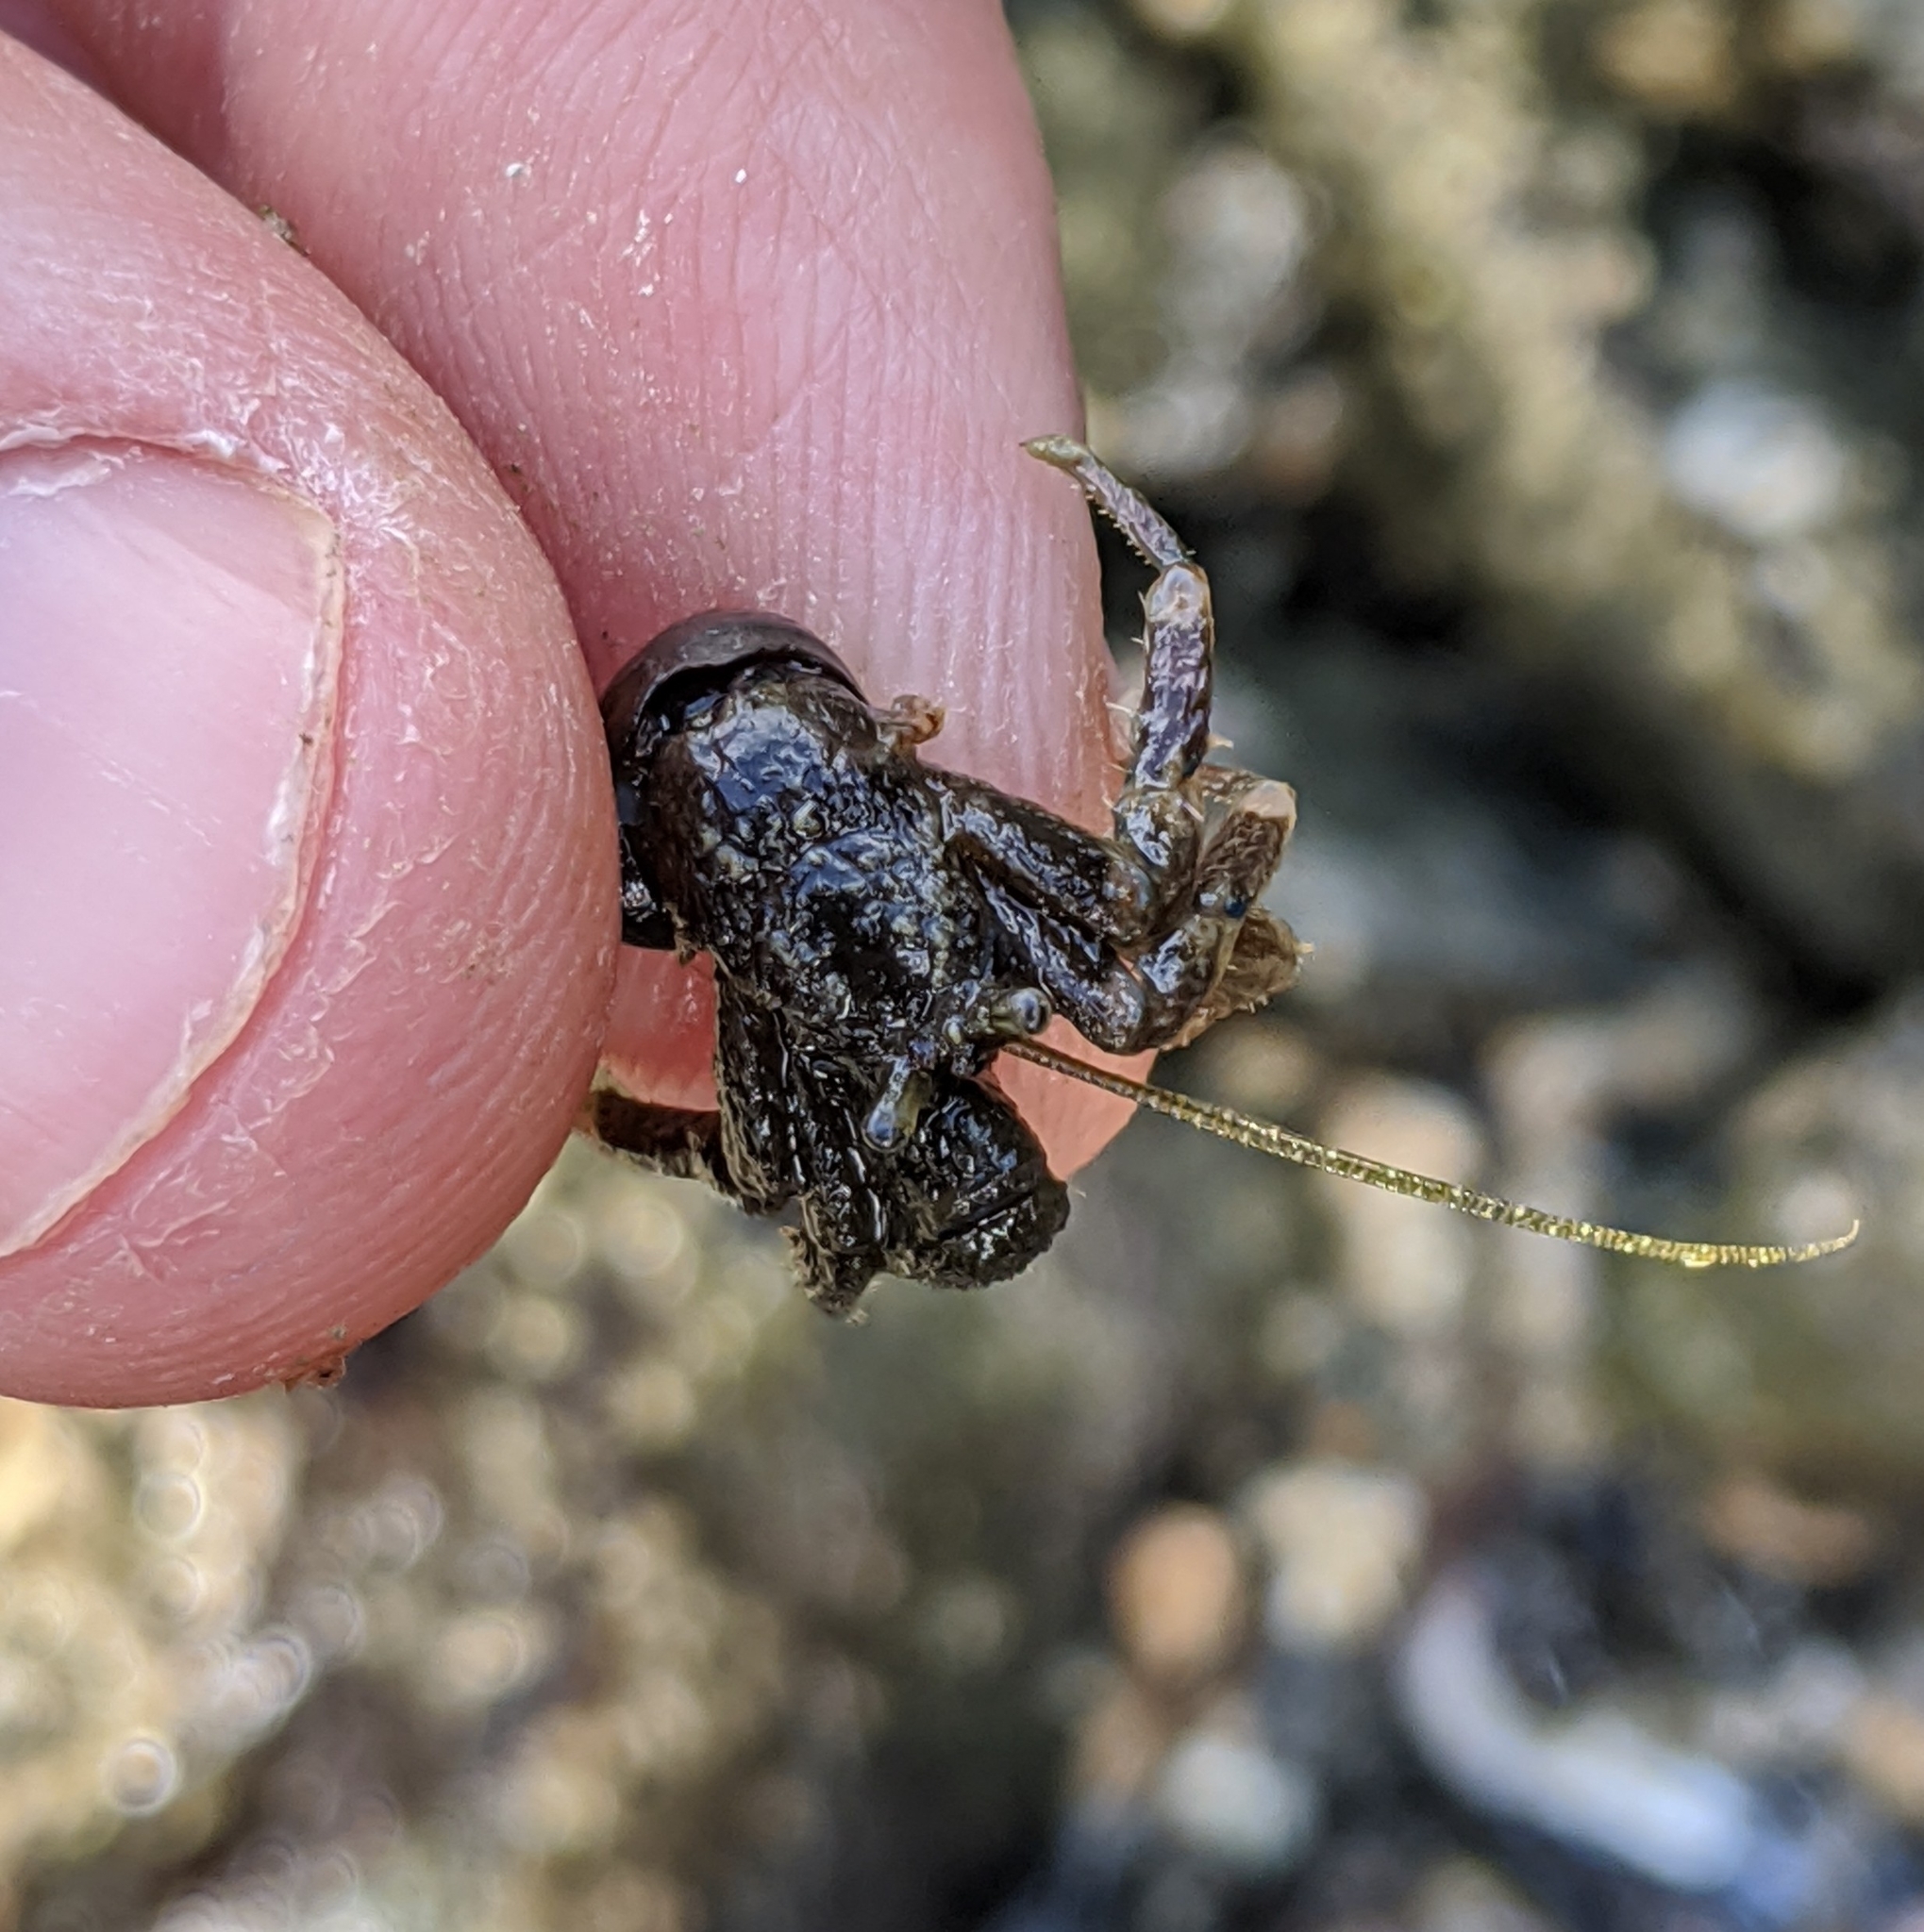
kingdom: Animalia
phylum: Arthropoda
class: Malacostraca
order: Decapoda
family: Paguridae
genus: Pagurus
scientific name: Pagurus hirsutiusculus
